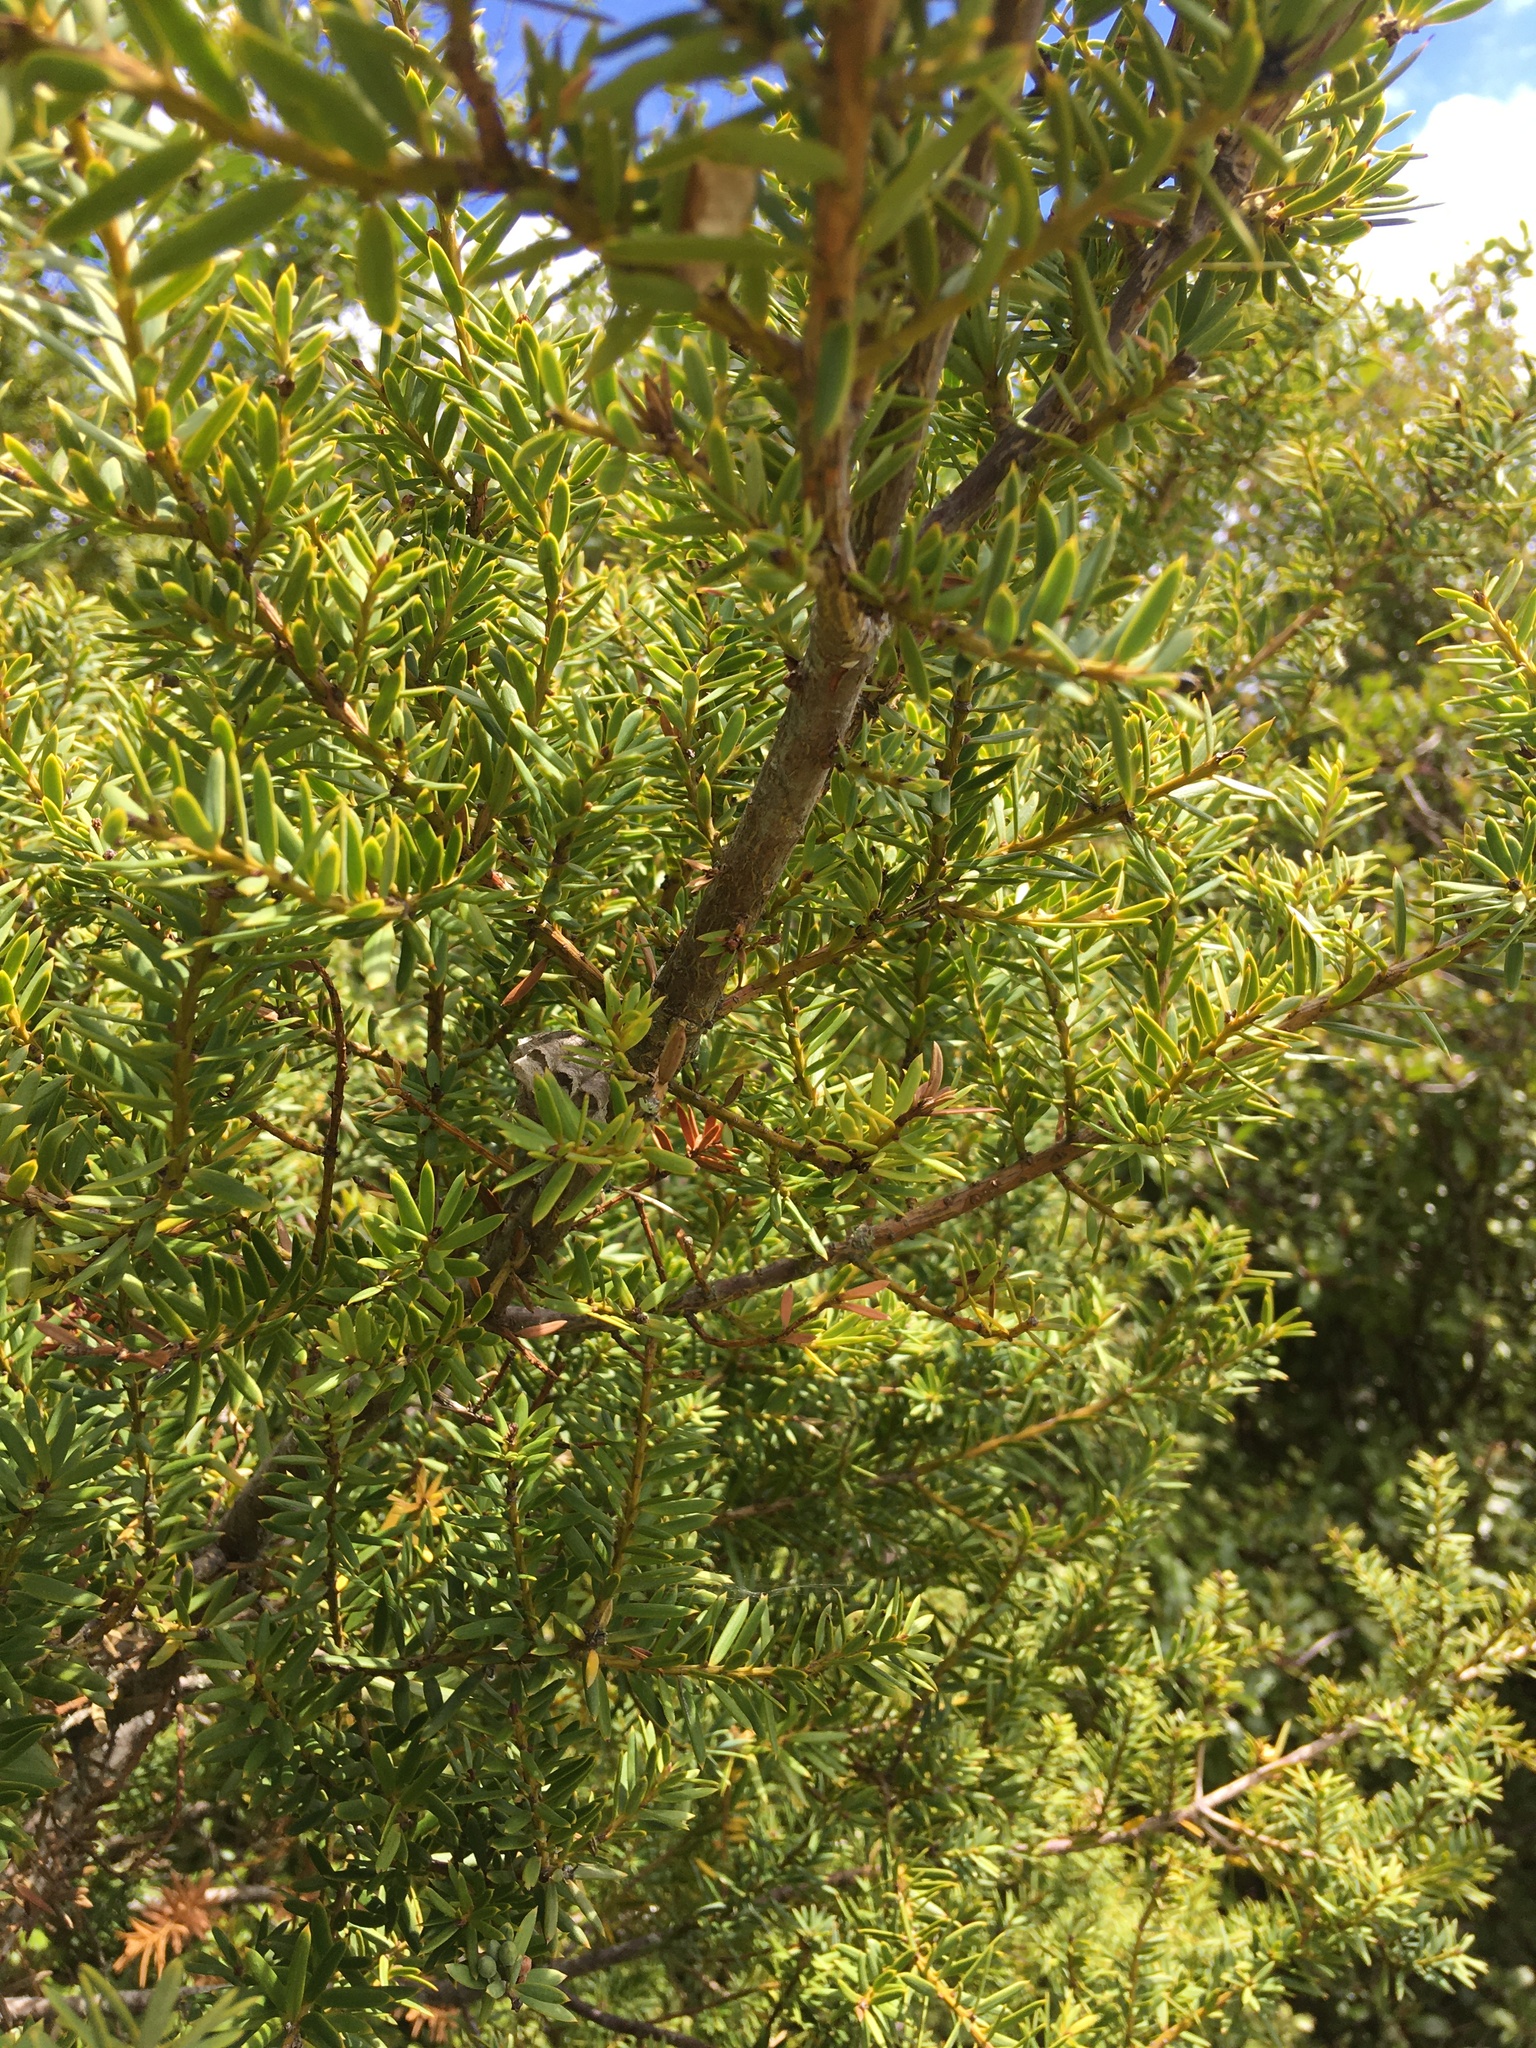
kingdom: Animalia
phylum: Arthropoda
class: Insecta
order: Hymenoptera
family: Eumenidae
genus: Polistes
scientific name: Polistes
